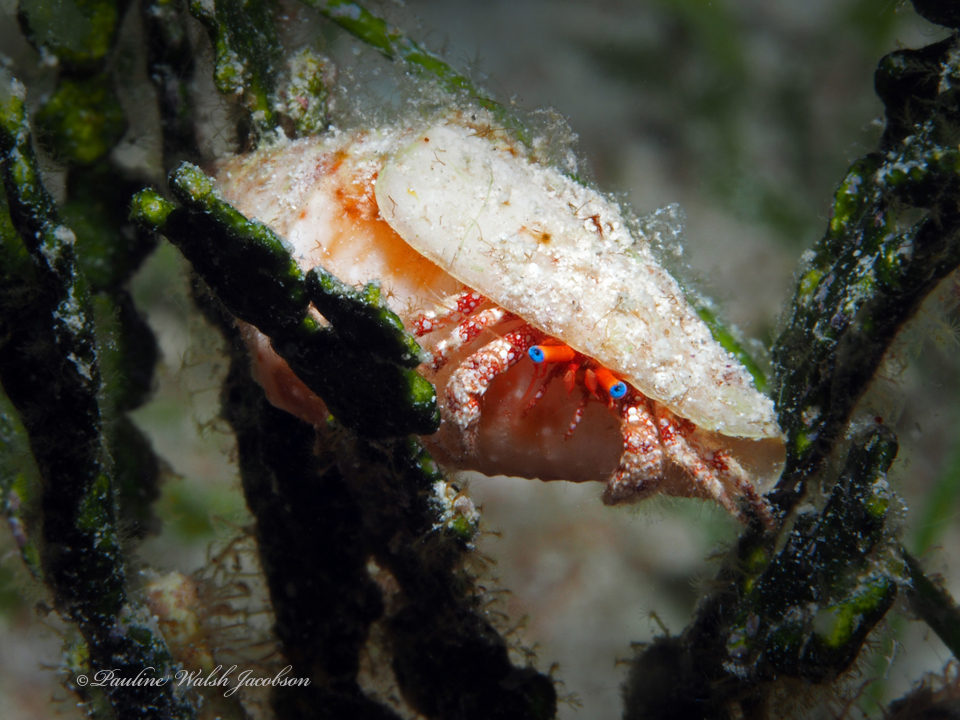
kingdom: Animalia
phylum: Arthropoda
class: Malacostraca
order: Decapoda
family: Diogenidae
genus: Paguristes
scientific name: Paguristes sericeus
